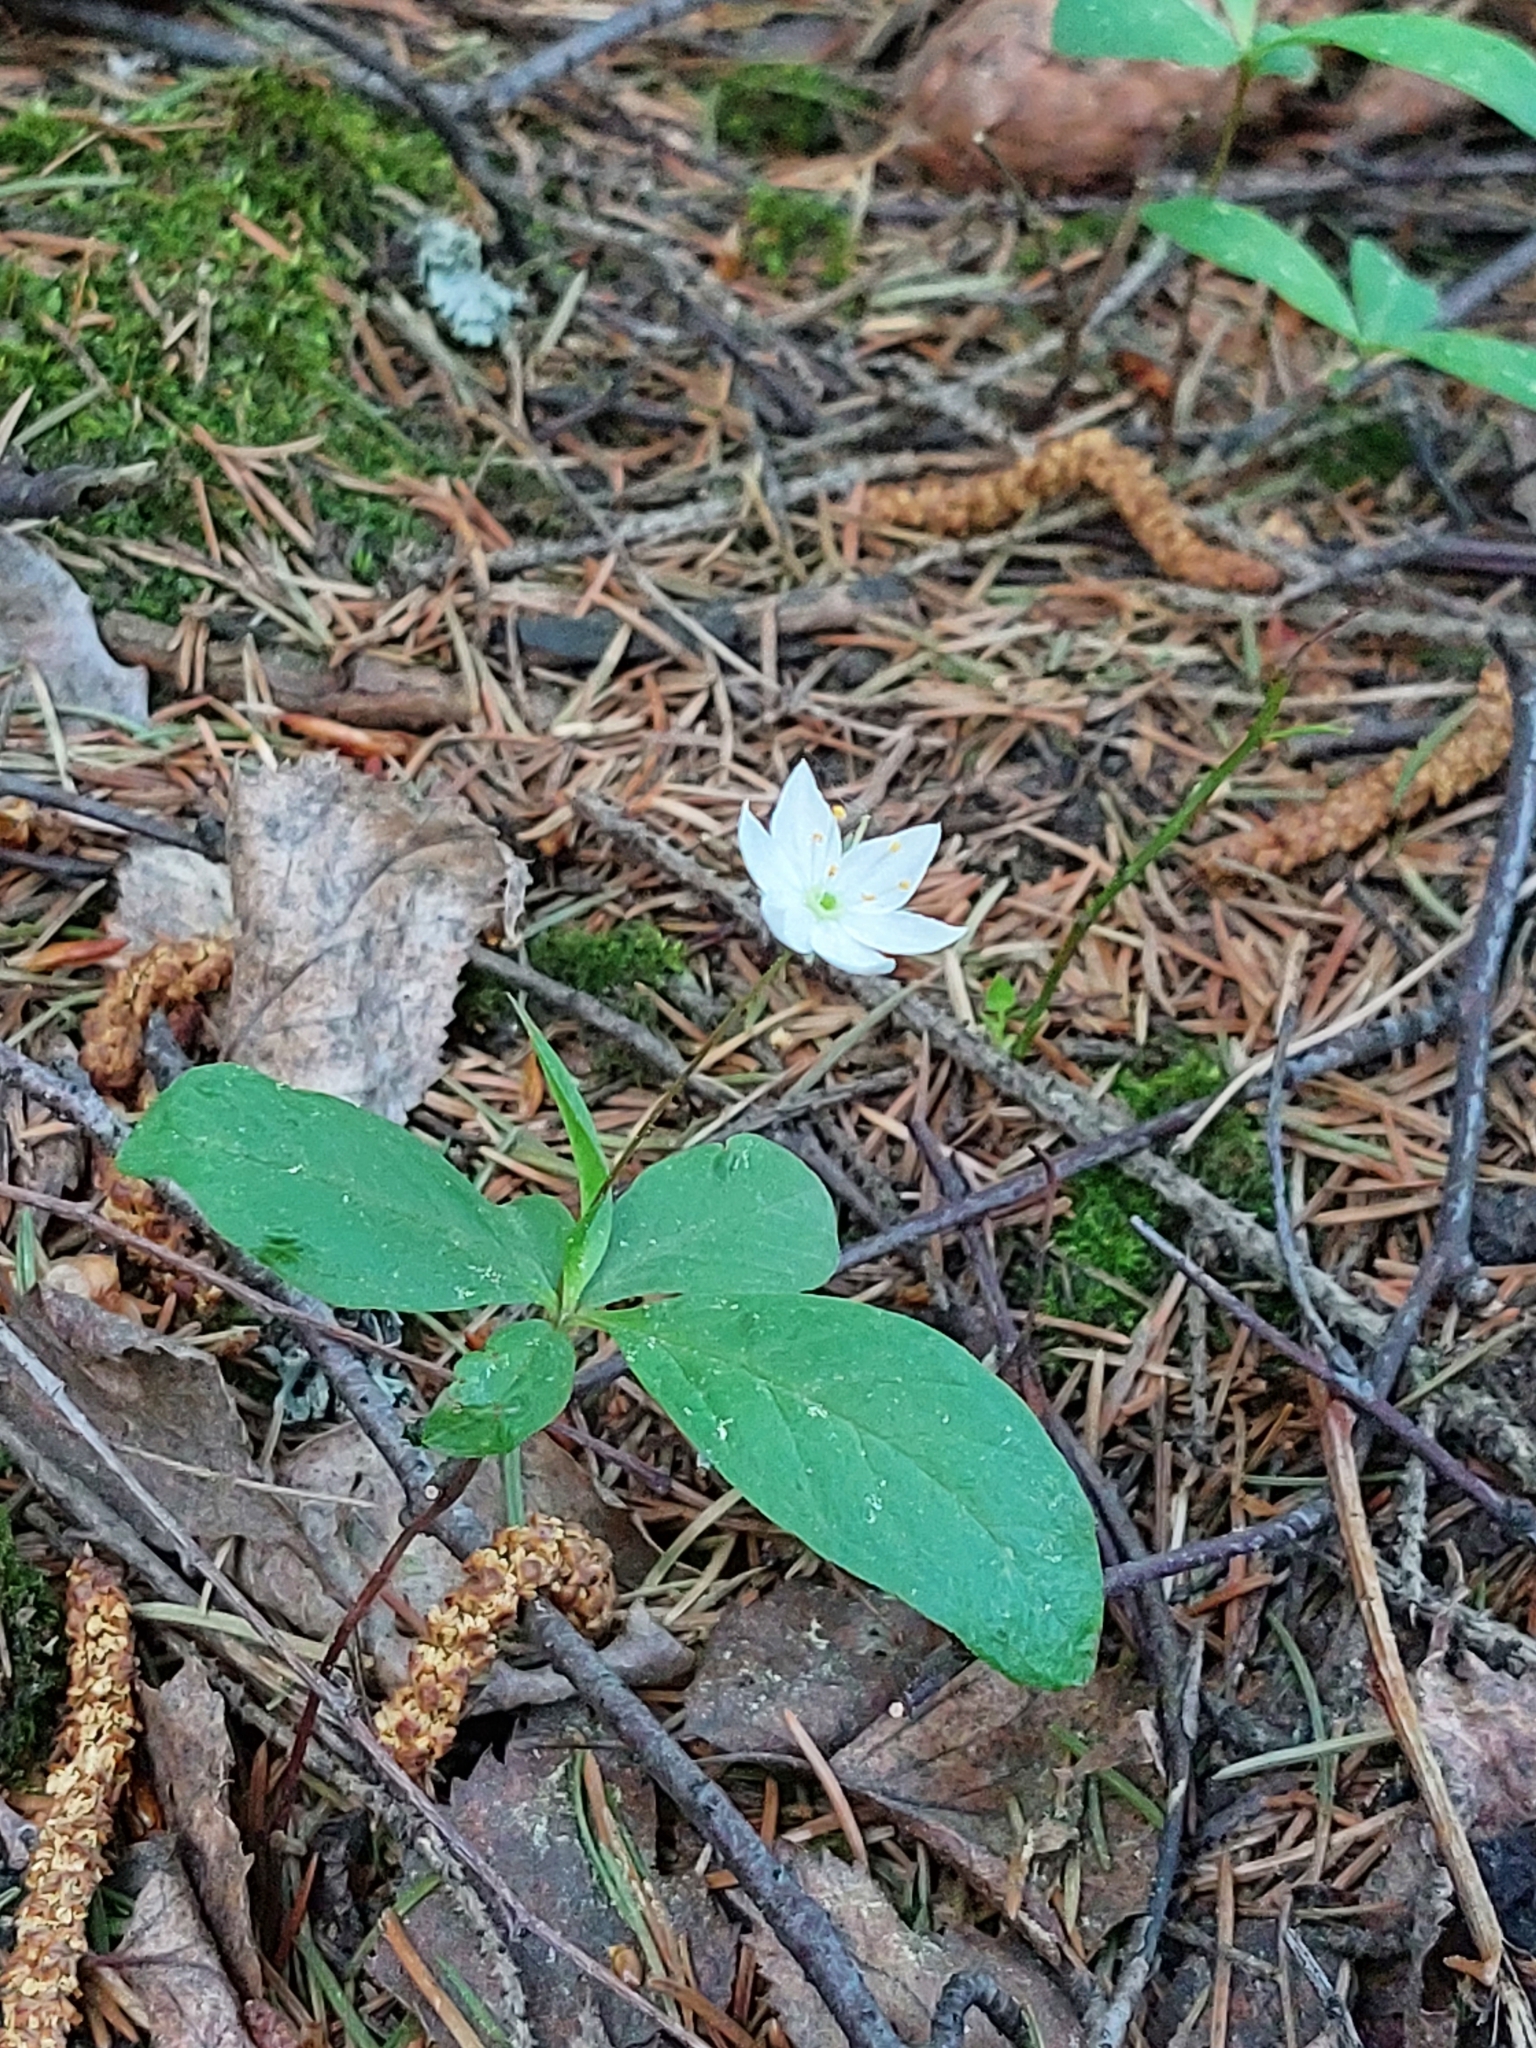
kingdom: Plantae
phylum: Tracheophyta
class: Magnoliopsida
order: Ericales
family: Primulaceae
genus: Lysimachia
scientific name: Lysimachia europaea
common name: Arctic starflower
